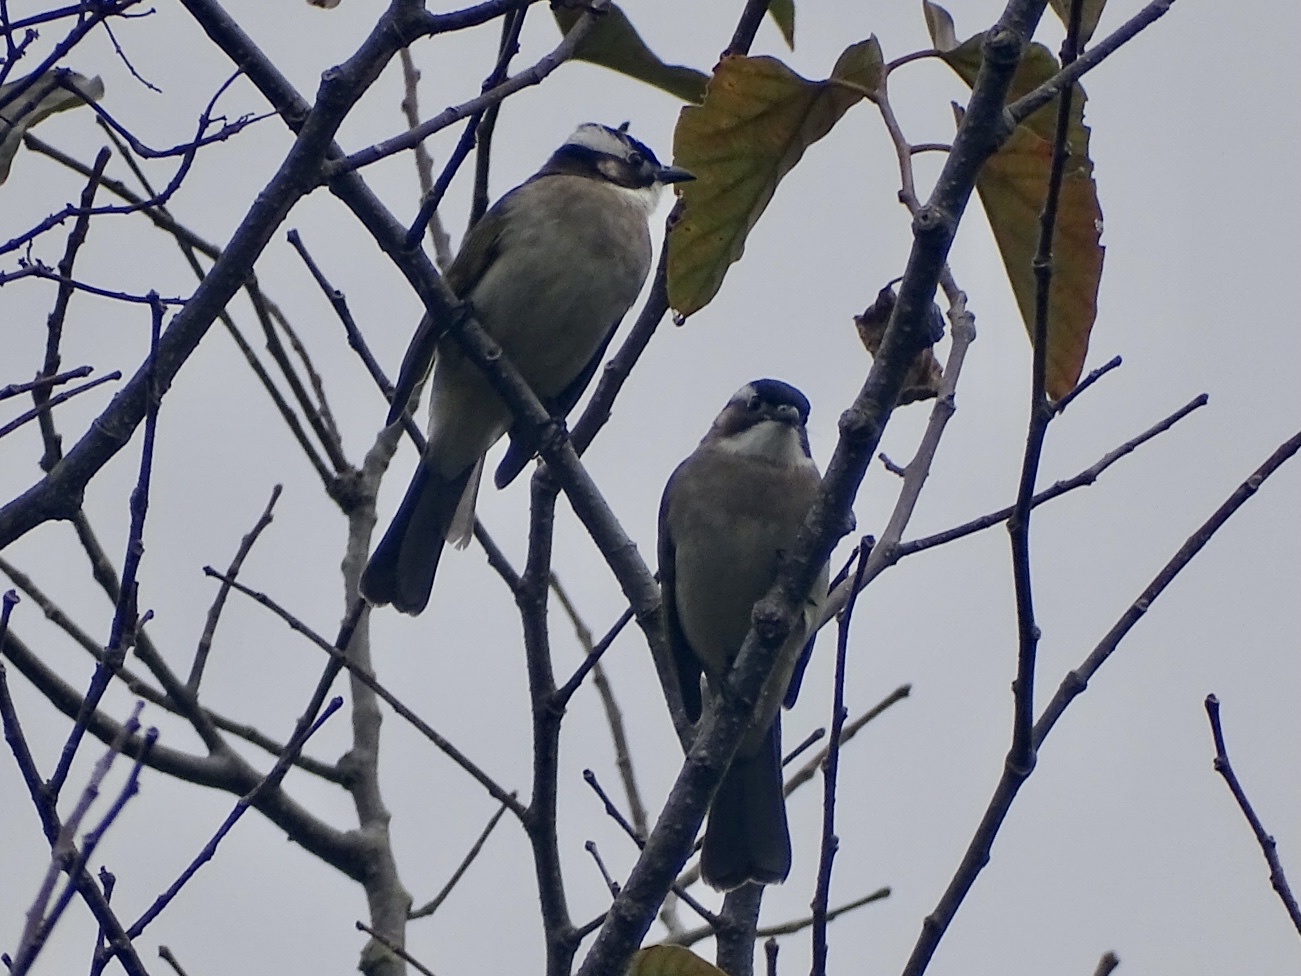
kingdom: Animalia
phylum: Chordata
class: Aves
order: Passeriformes
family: Pycnonotidae
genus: Pycnonotus
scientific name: Pycnonotus sinensis
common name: Light-vented bulbul
